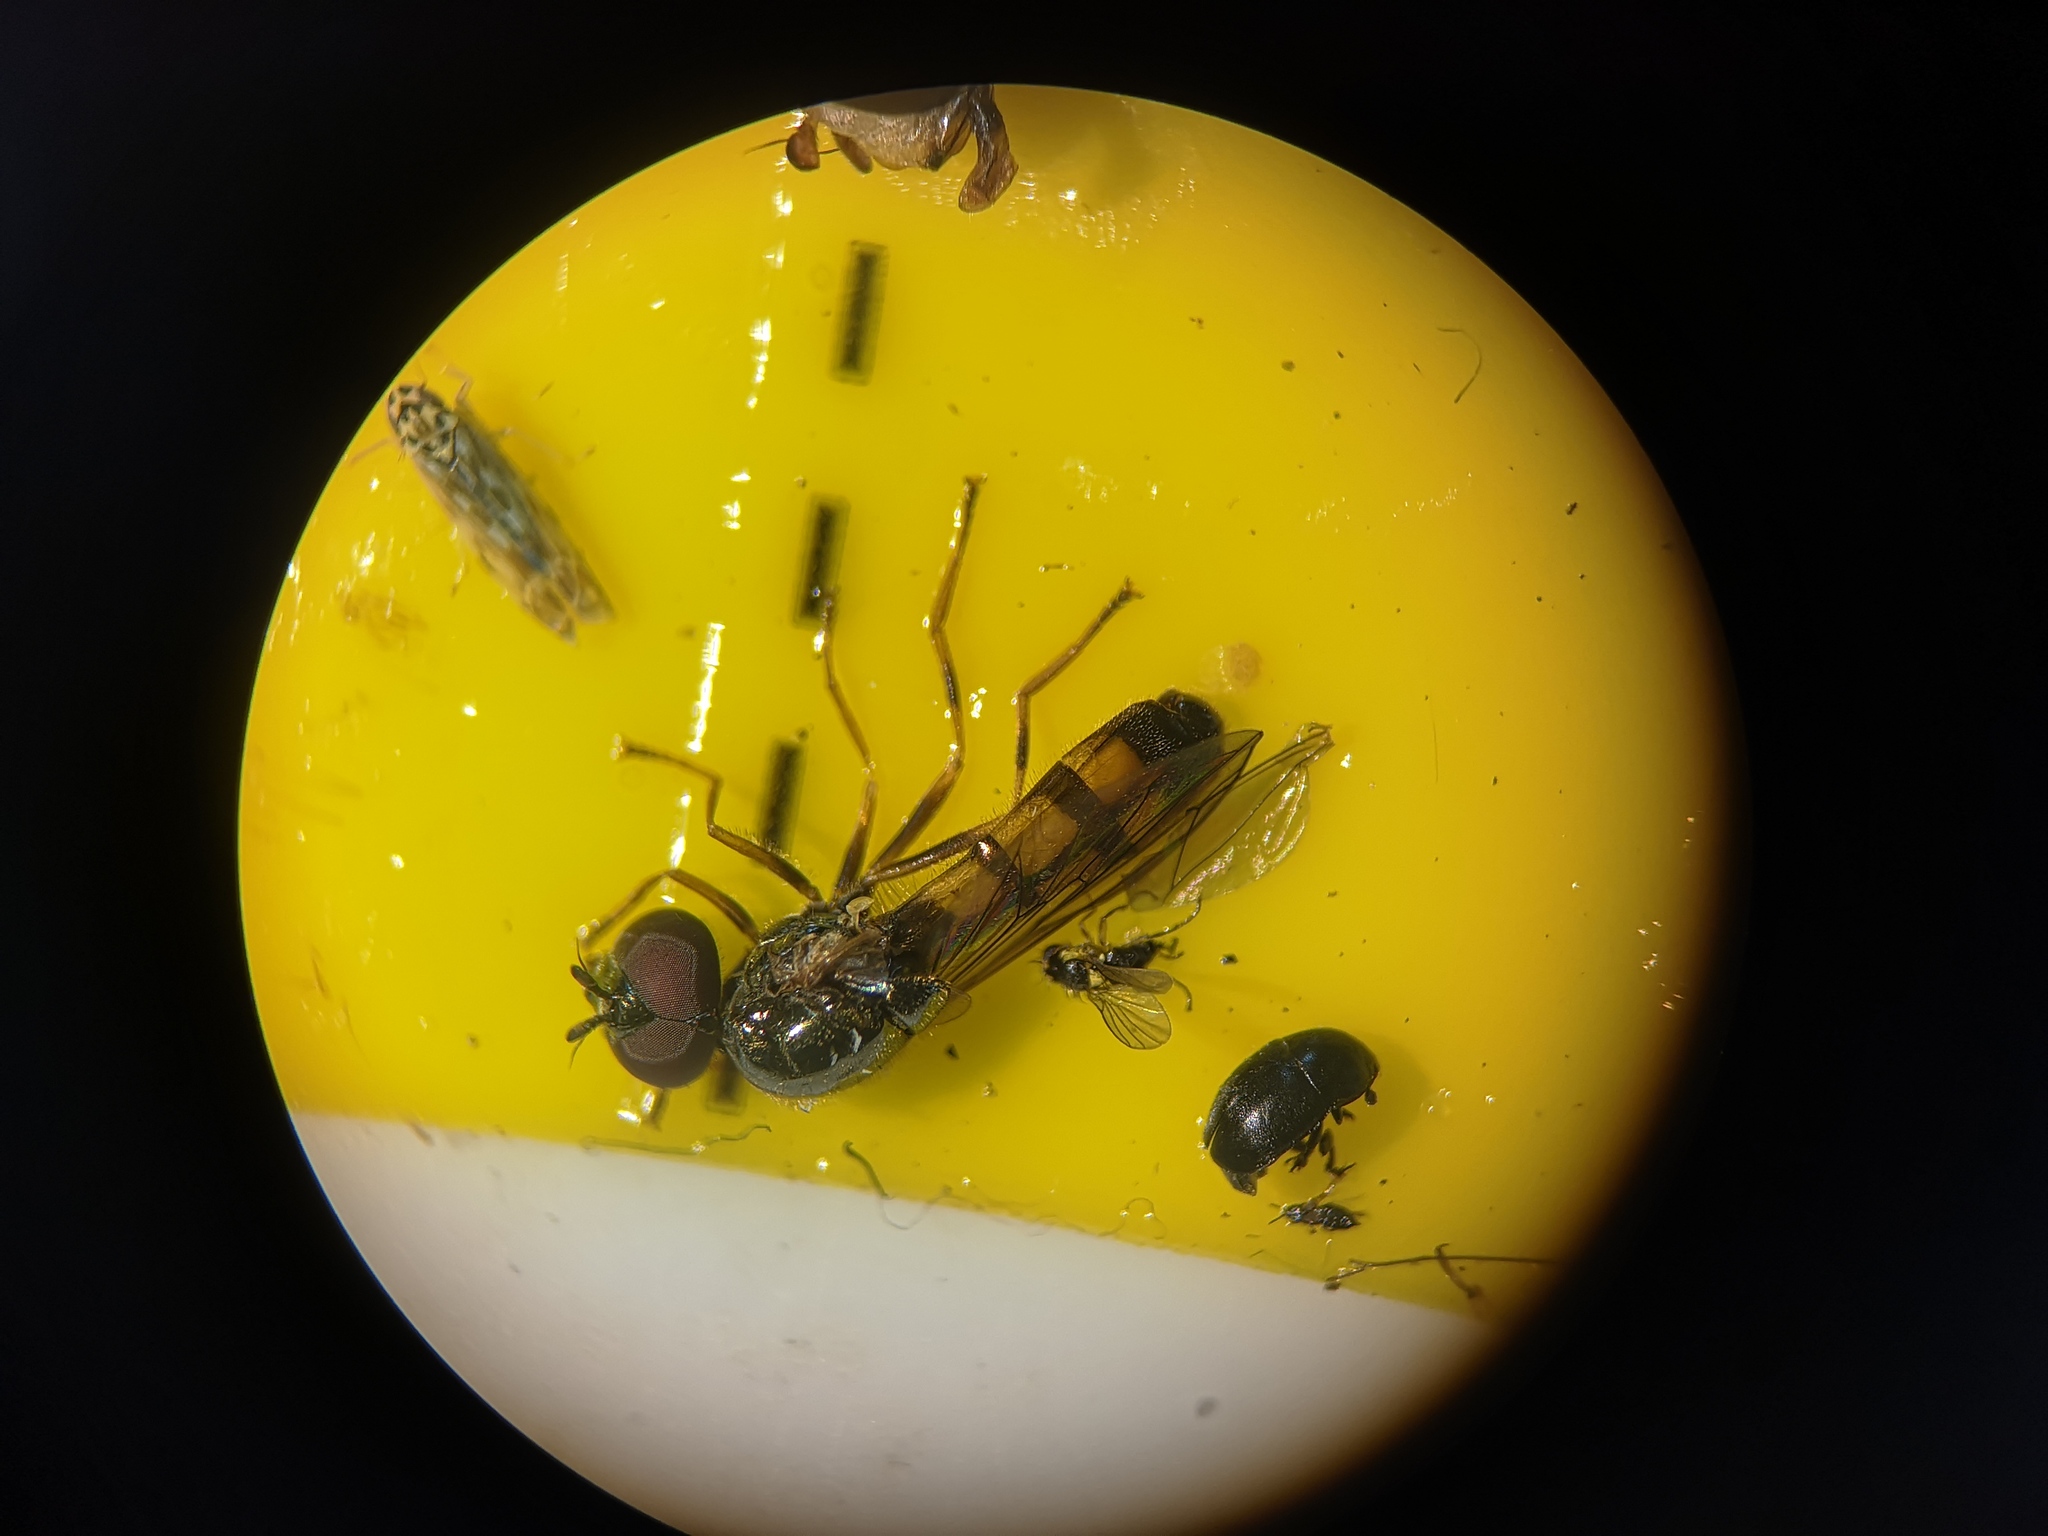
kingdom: Animalia
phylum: Arthropoda
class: Insecta
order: Diptera
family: Syrphidae
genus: Melanostoma
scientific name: Melanostoma mellina
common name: Hover fly
